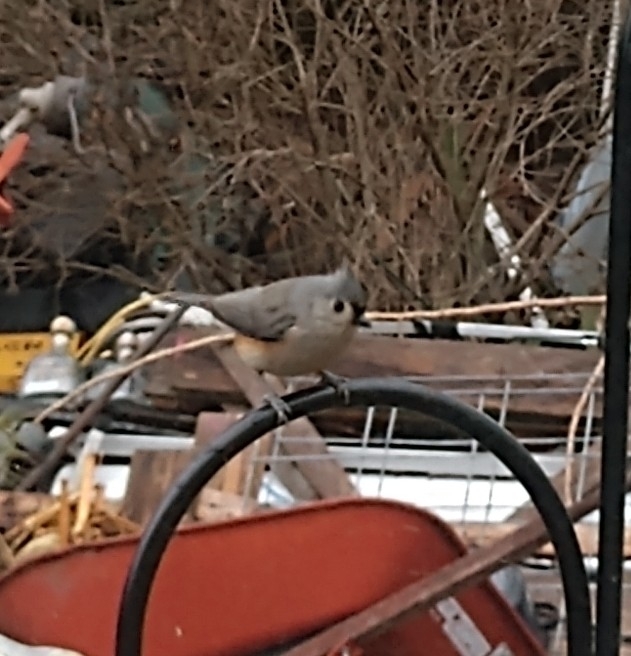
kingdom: Animalia
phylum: Chordata
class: Aves
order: Passeriformes
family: Paridae
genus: Baeolophus
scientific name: Baeolophus bicolor
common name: Tufted titmouse
